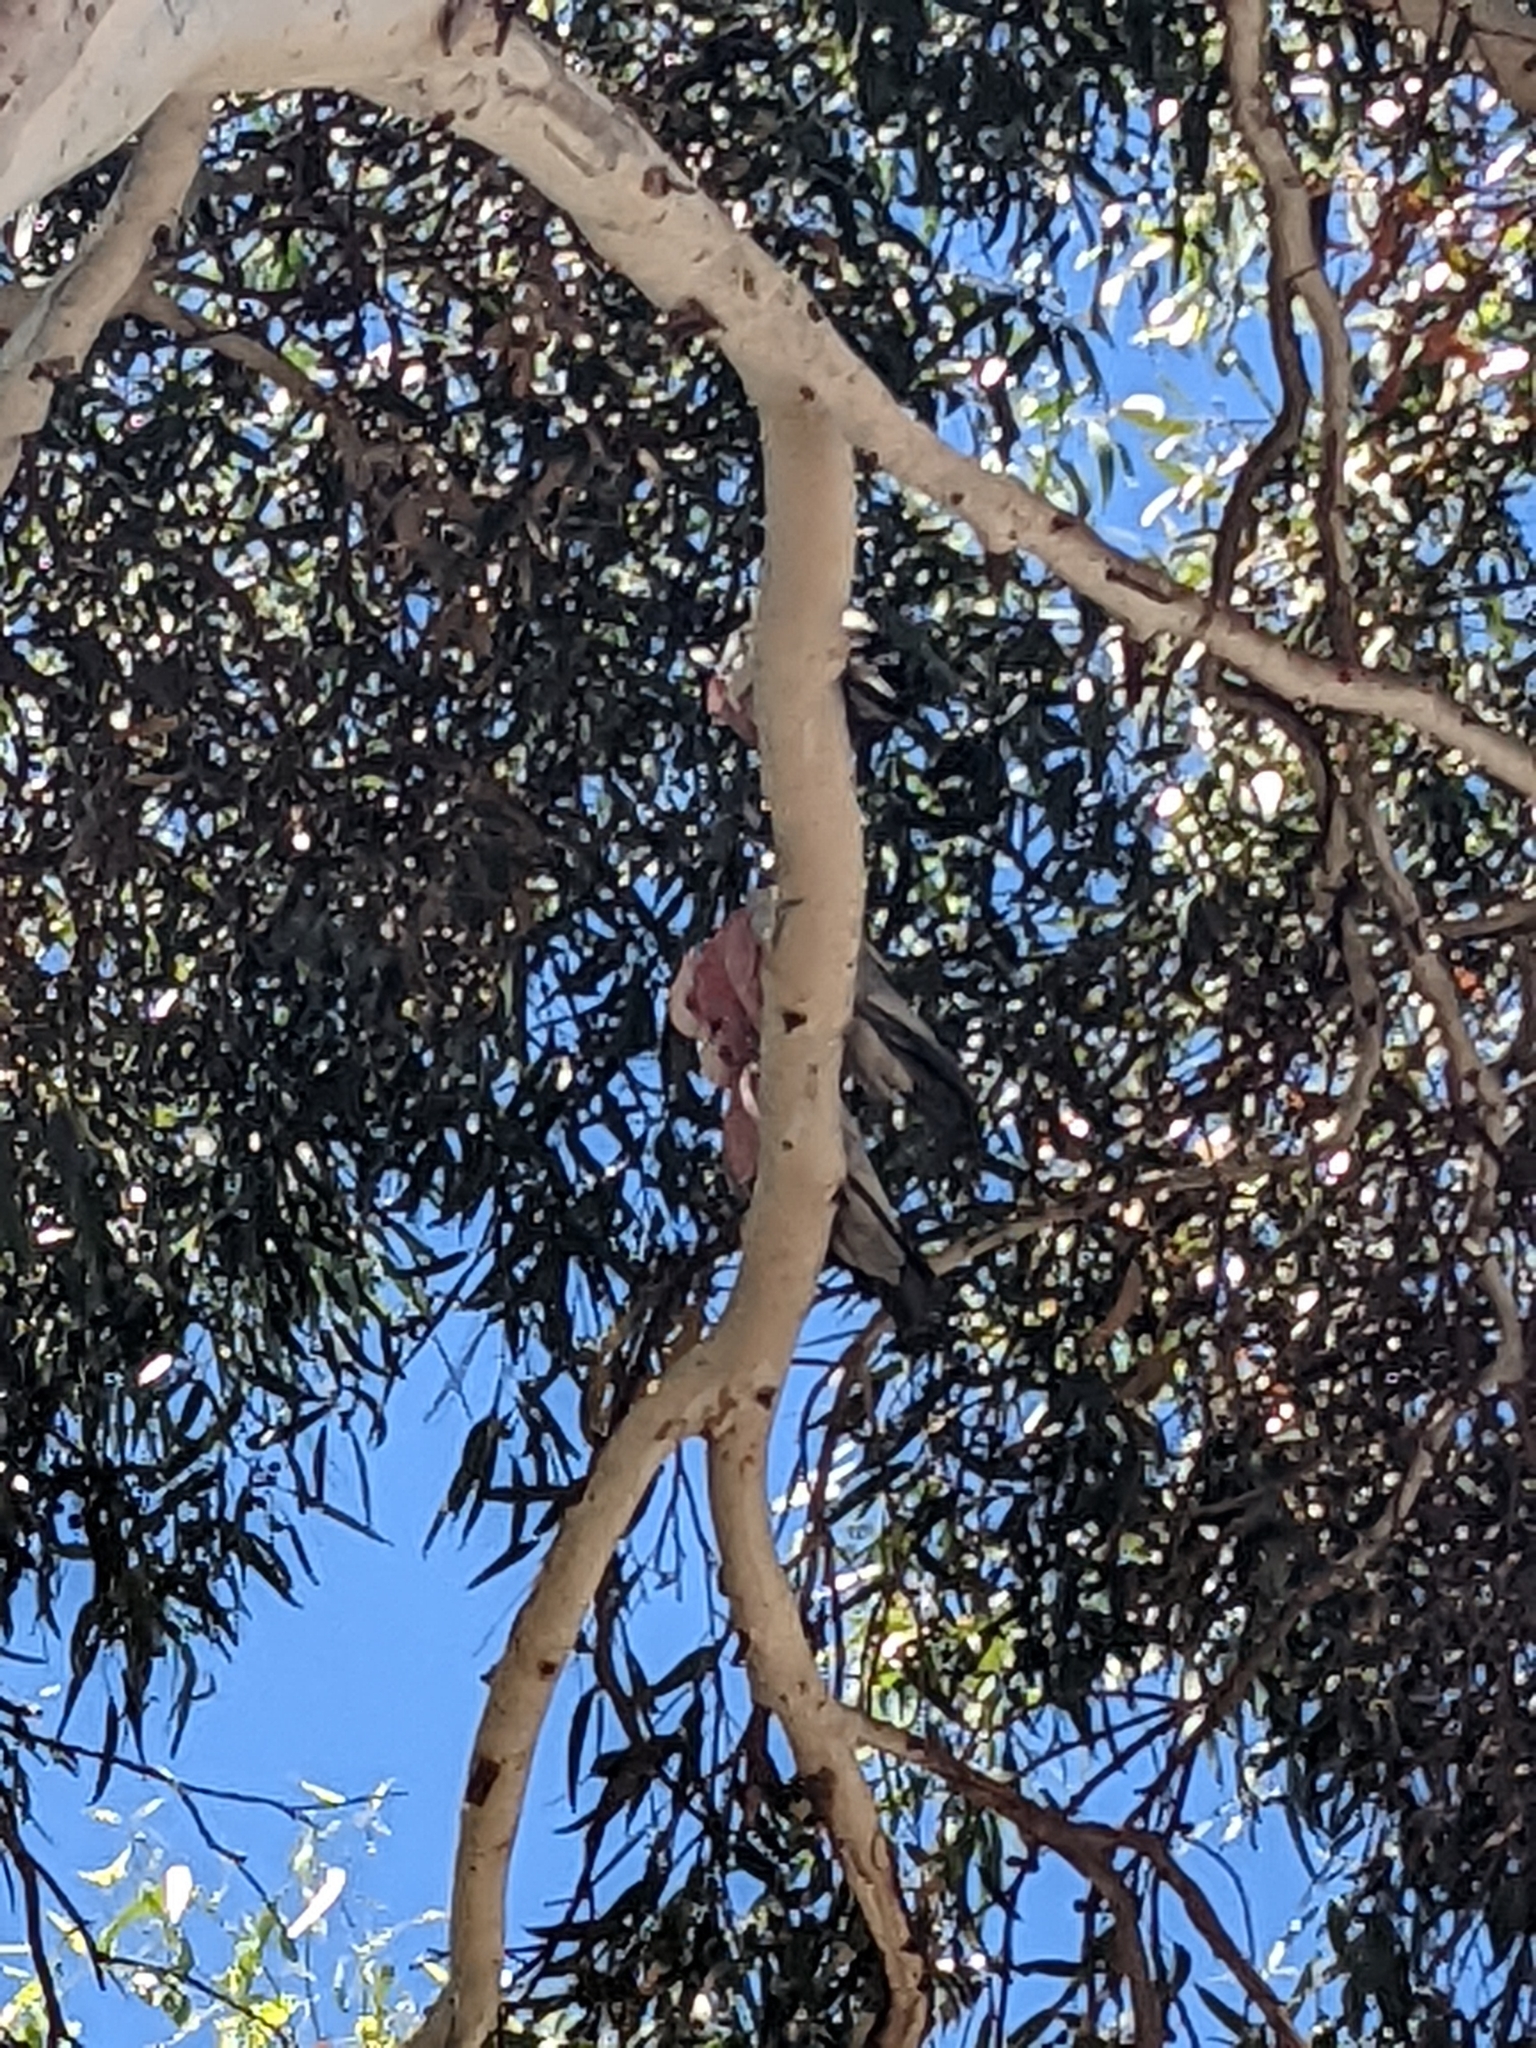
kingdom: Animalia
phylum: Chordata
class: Aves
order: Psittaciformes
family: Psittacidae
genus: Eolophus
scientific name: Eolophus roseicapilla
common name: Galah
